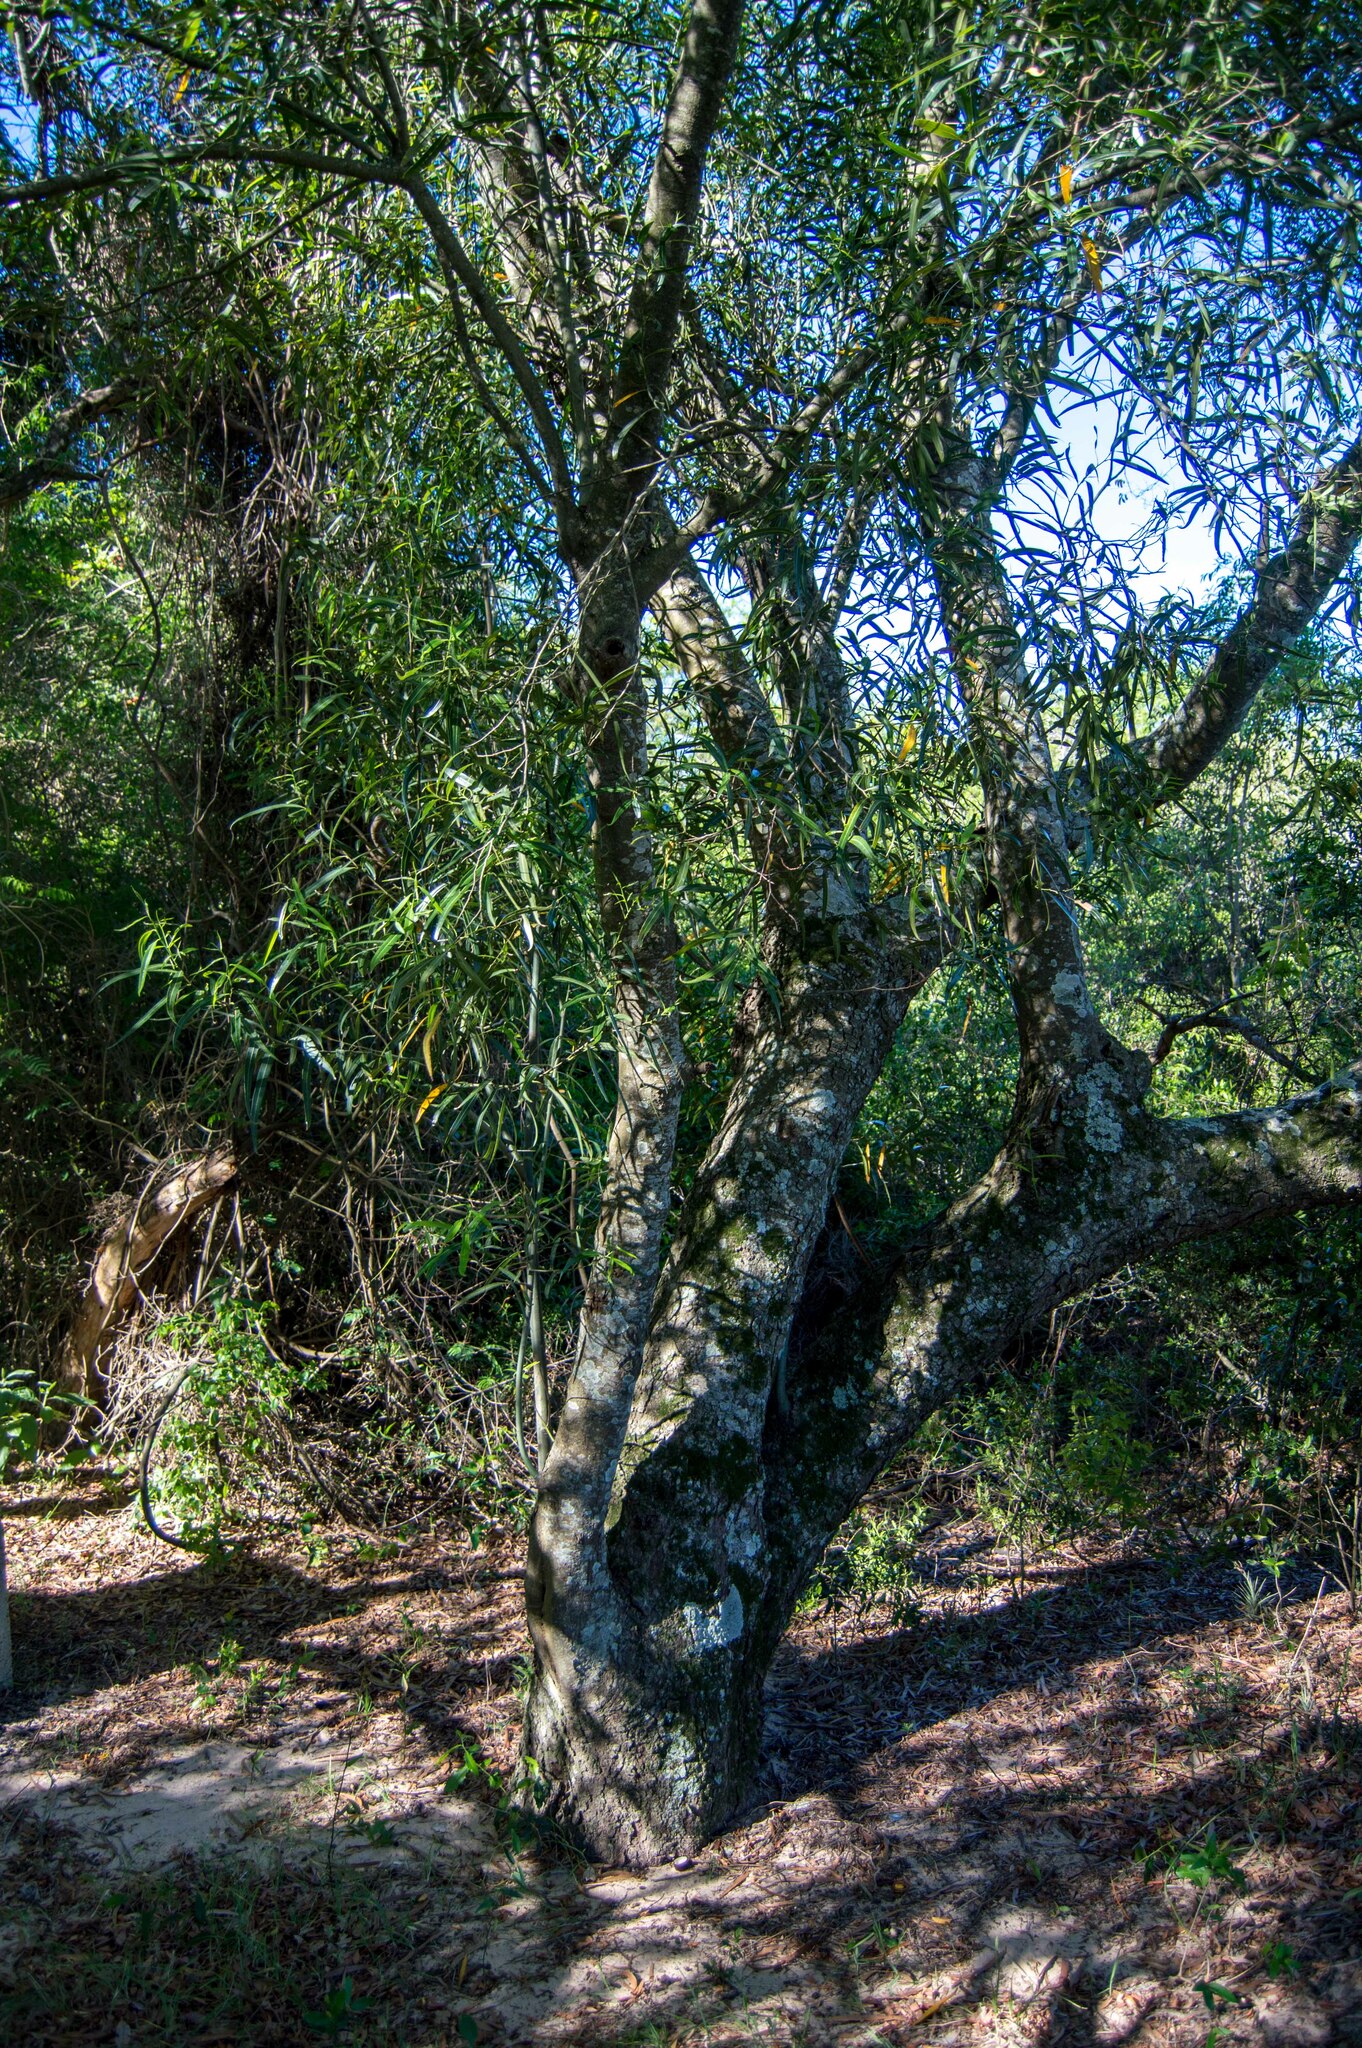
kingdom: Plantae
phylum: Tracheophyta
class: Magnoliopsida
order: Laurales
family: Lauraceae
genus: Nectandra
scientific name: Nectandra angustifolia
